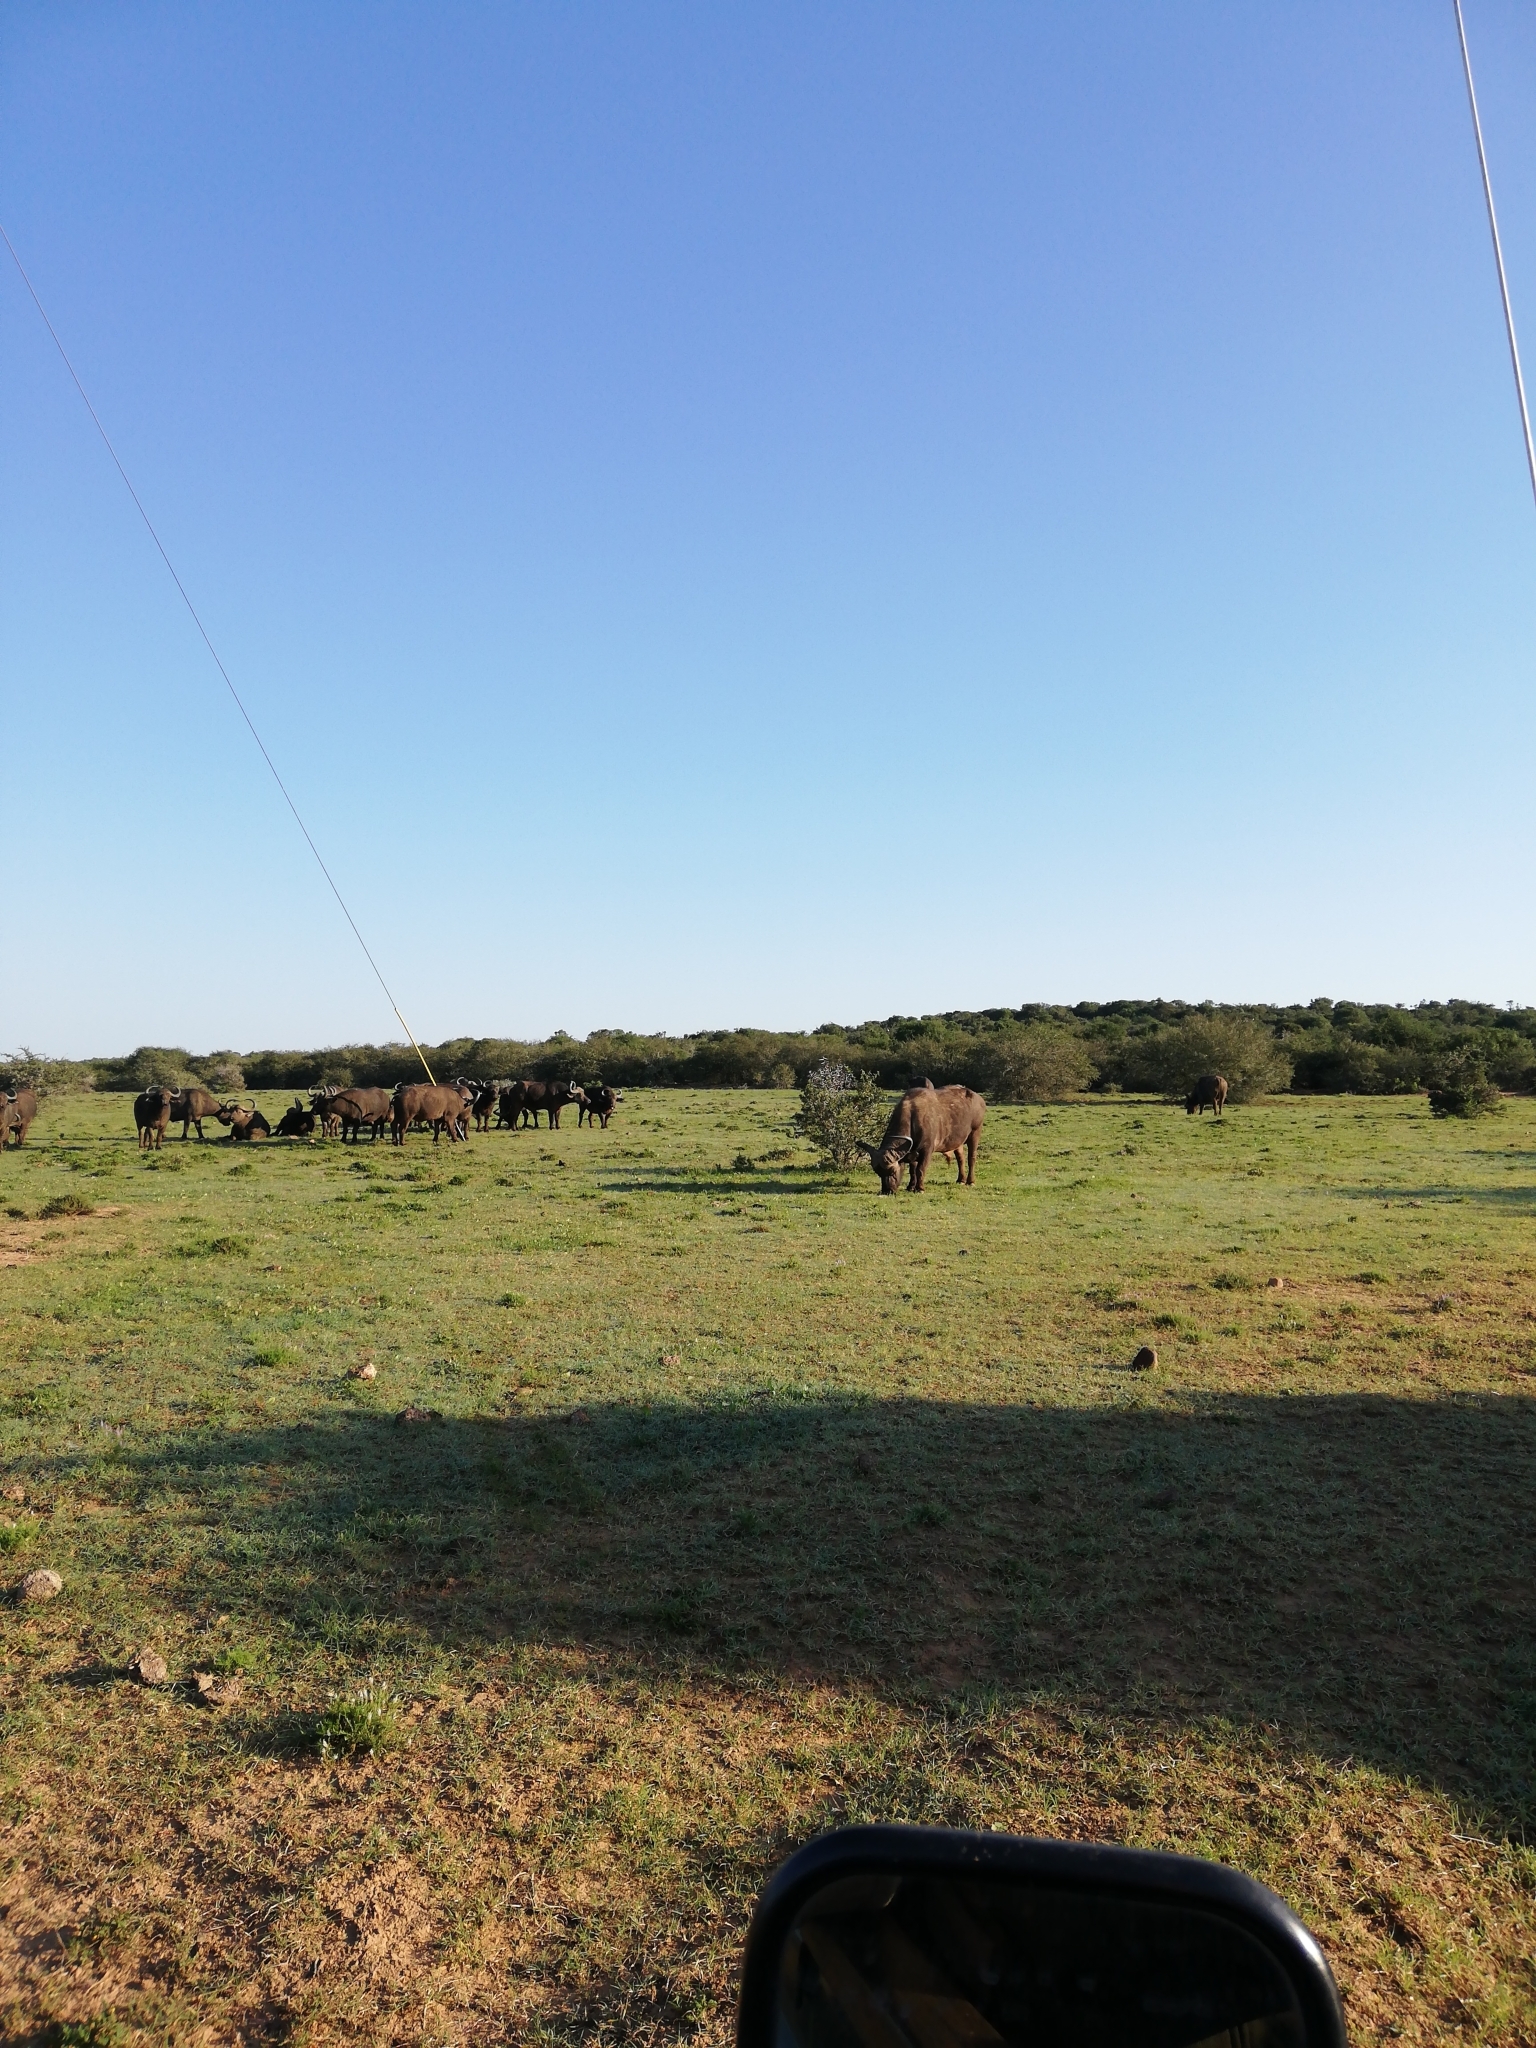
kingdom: Animalia
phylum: Chordata
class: Mammalia
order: Artiodactyla
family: Bovidae
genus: Syncerus
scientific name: Syncerus caffer
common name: African buffalo
